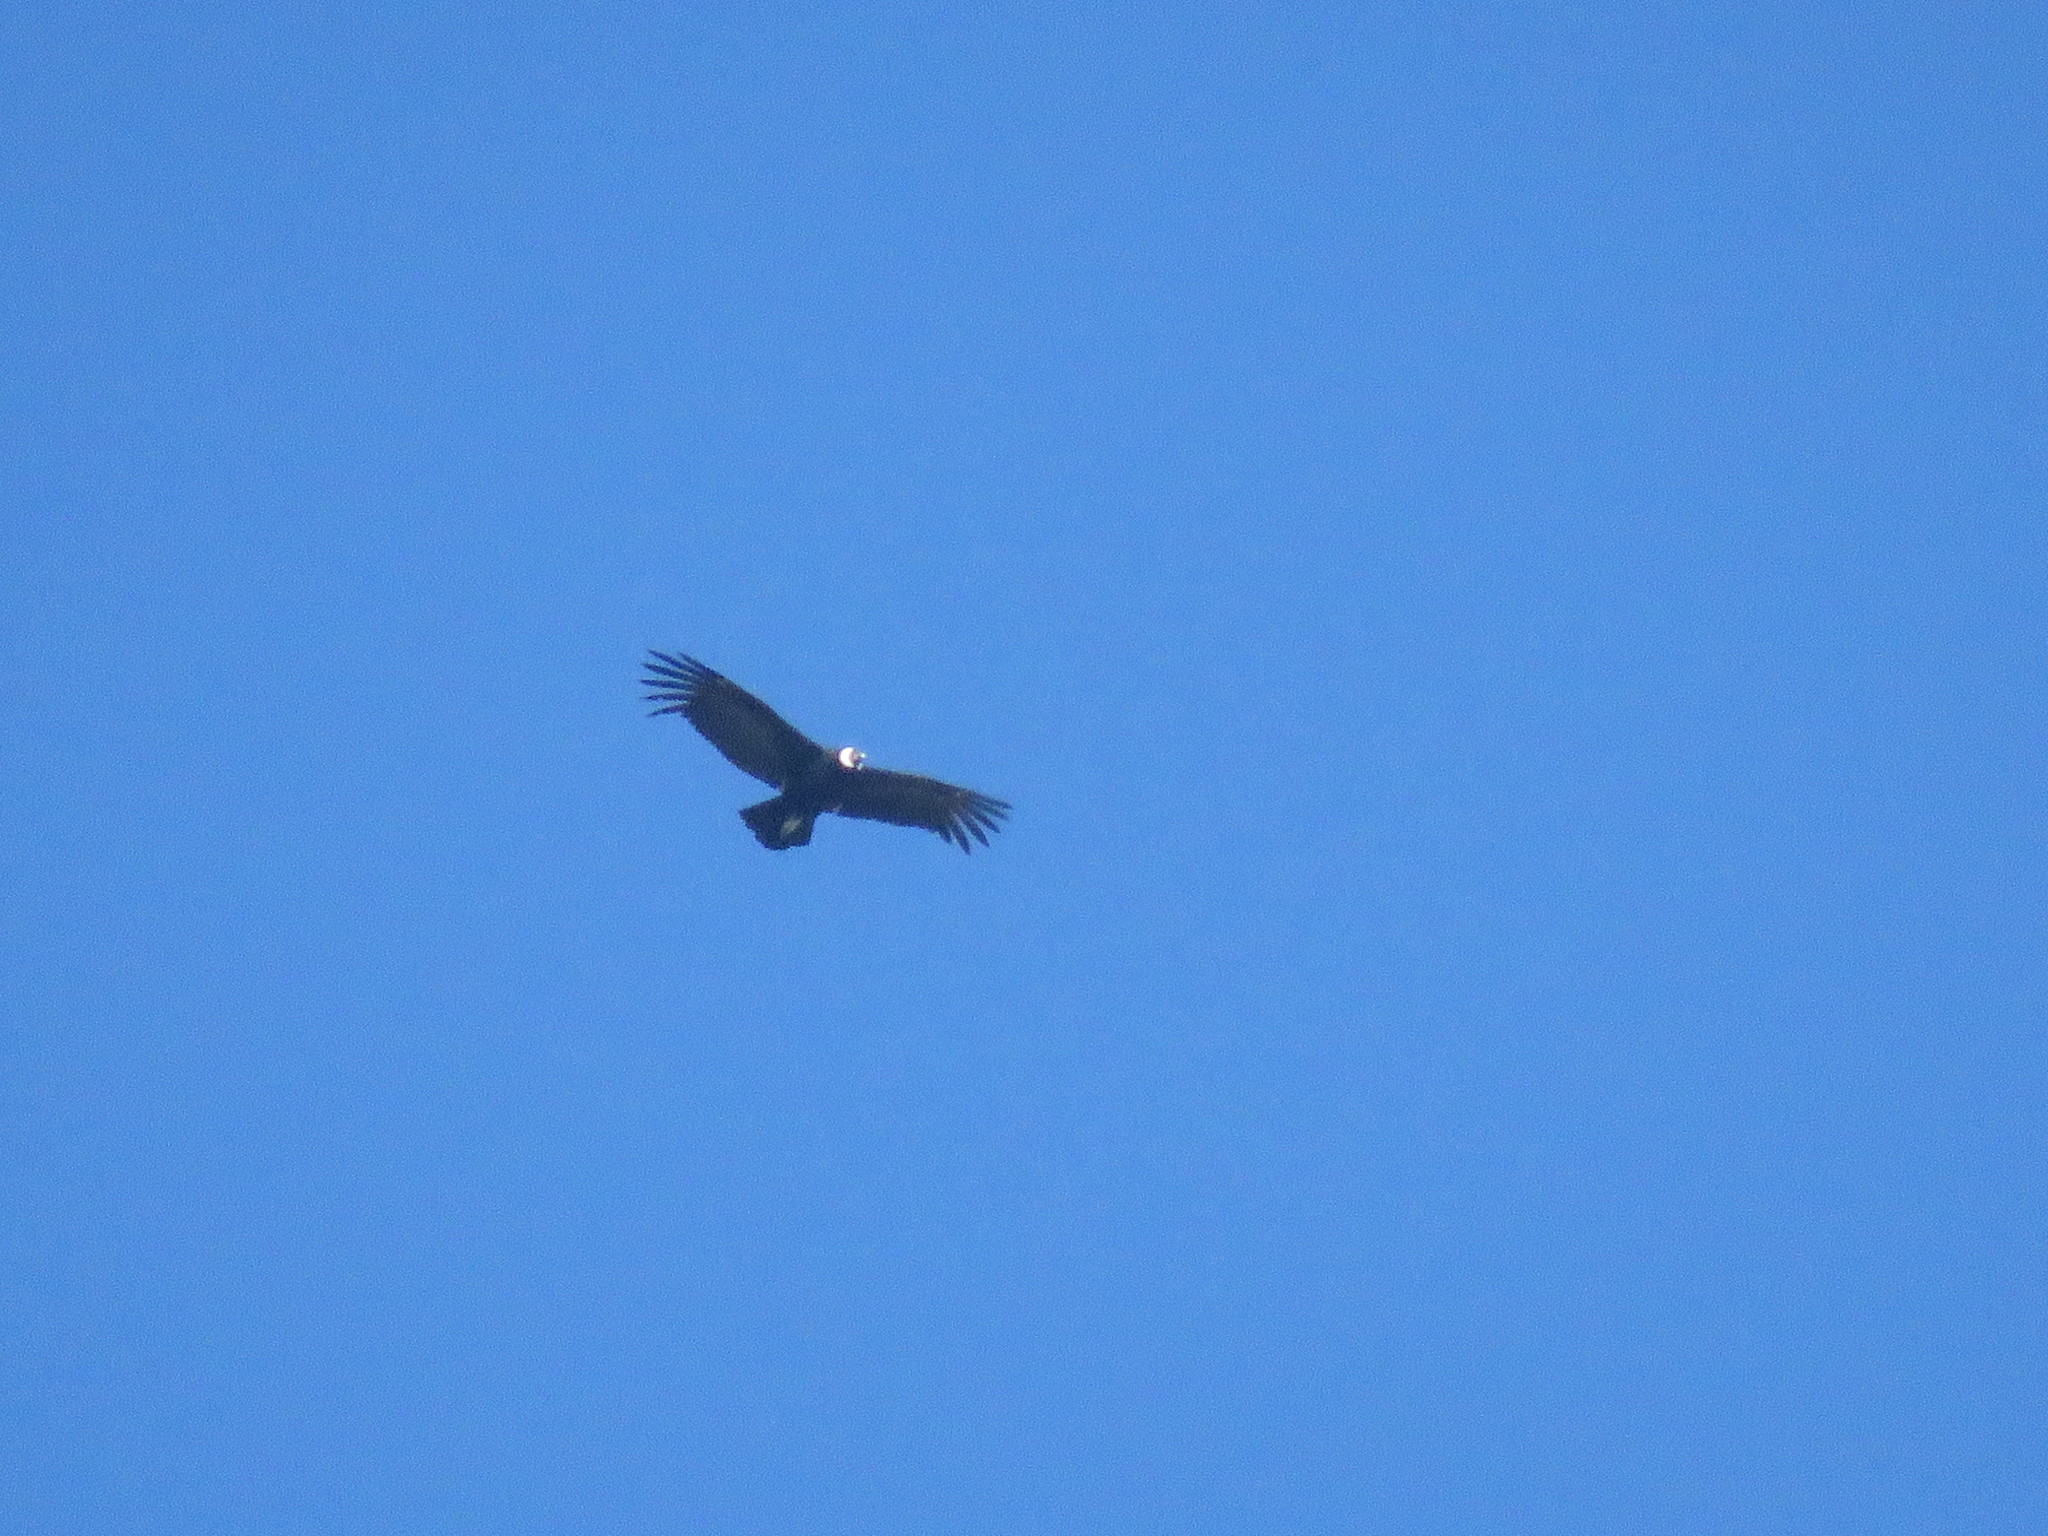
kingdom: Animalia
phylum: Chordata
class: Aves
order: Accipitriformes
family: Cathartidae
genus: Vultur
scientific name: Vultur gryphus
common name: Andean condor
